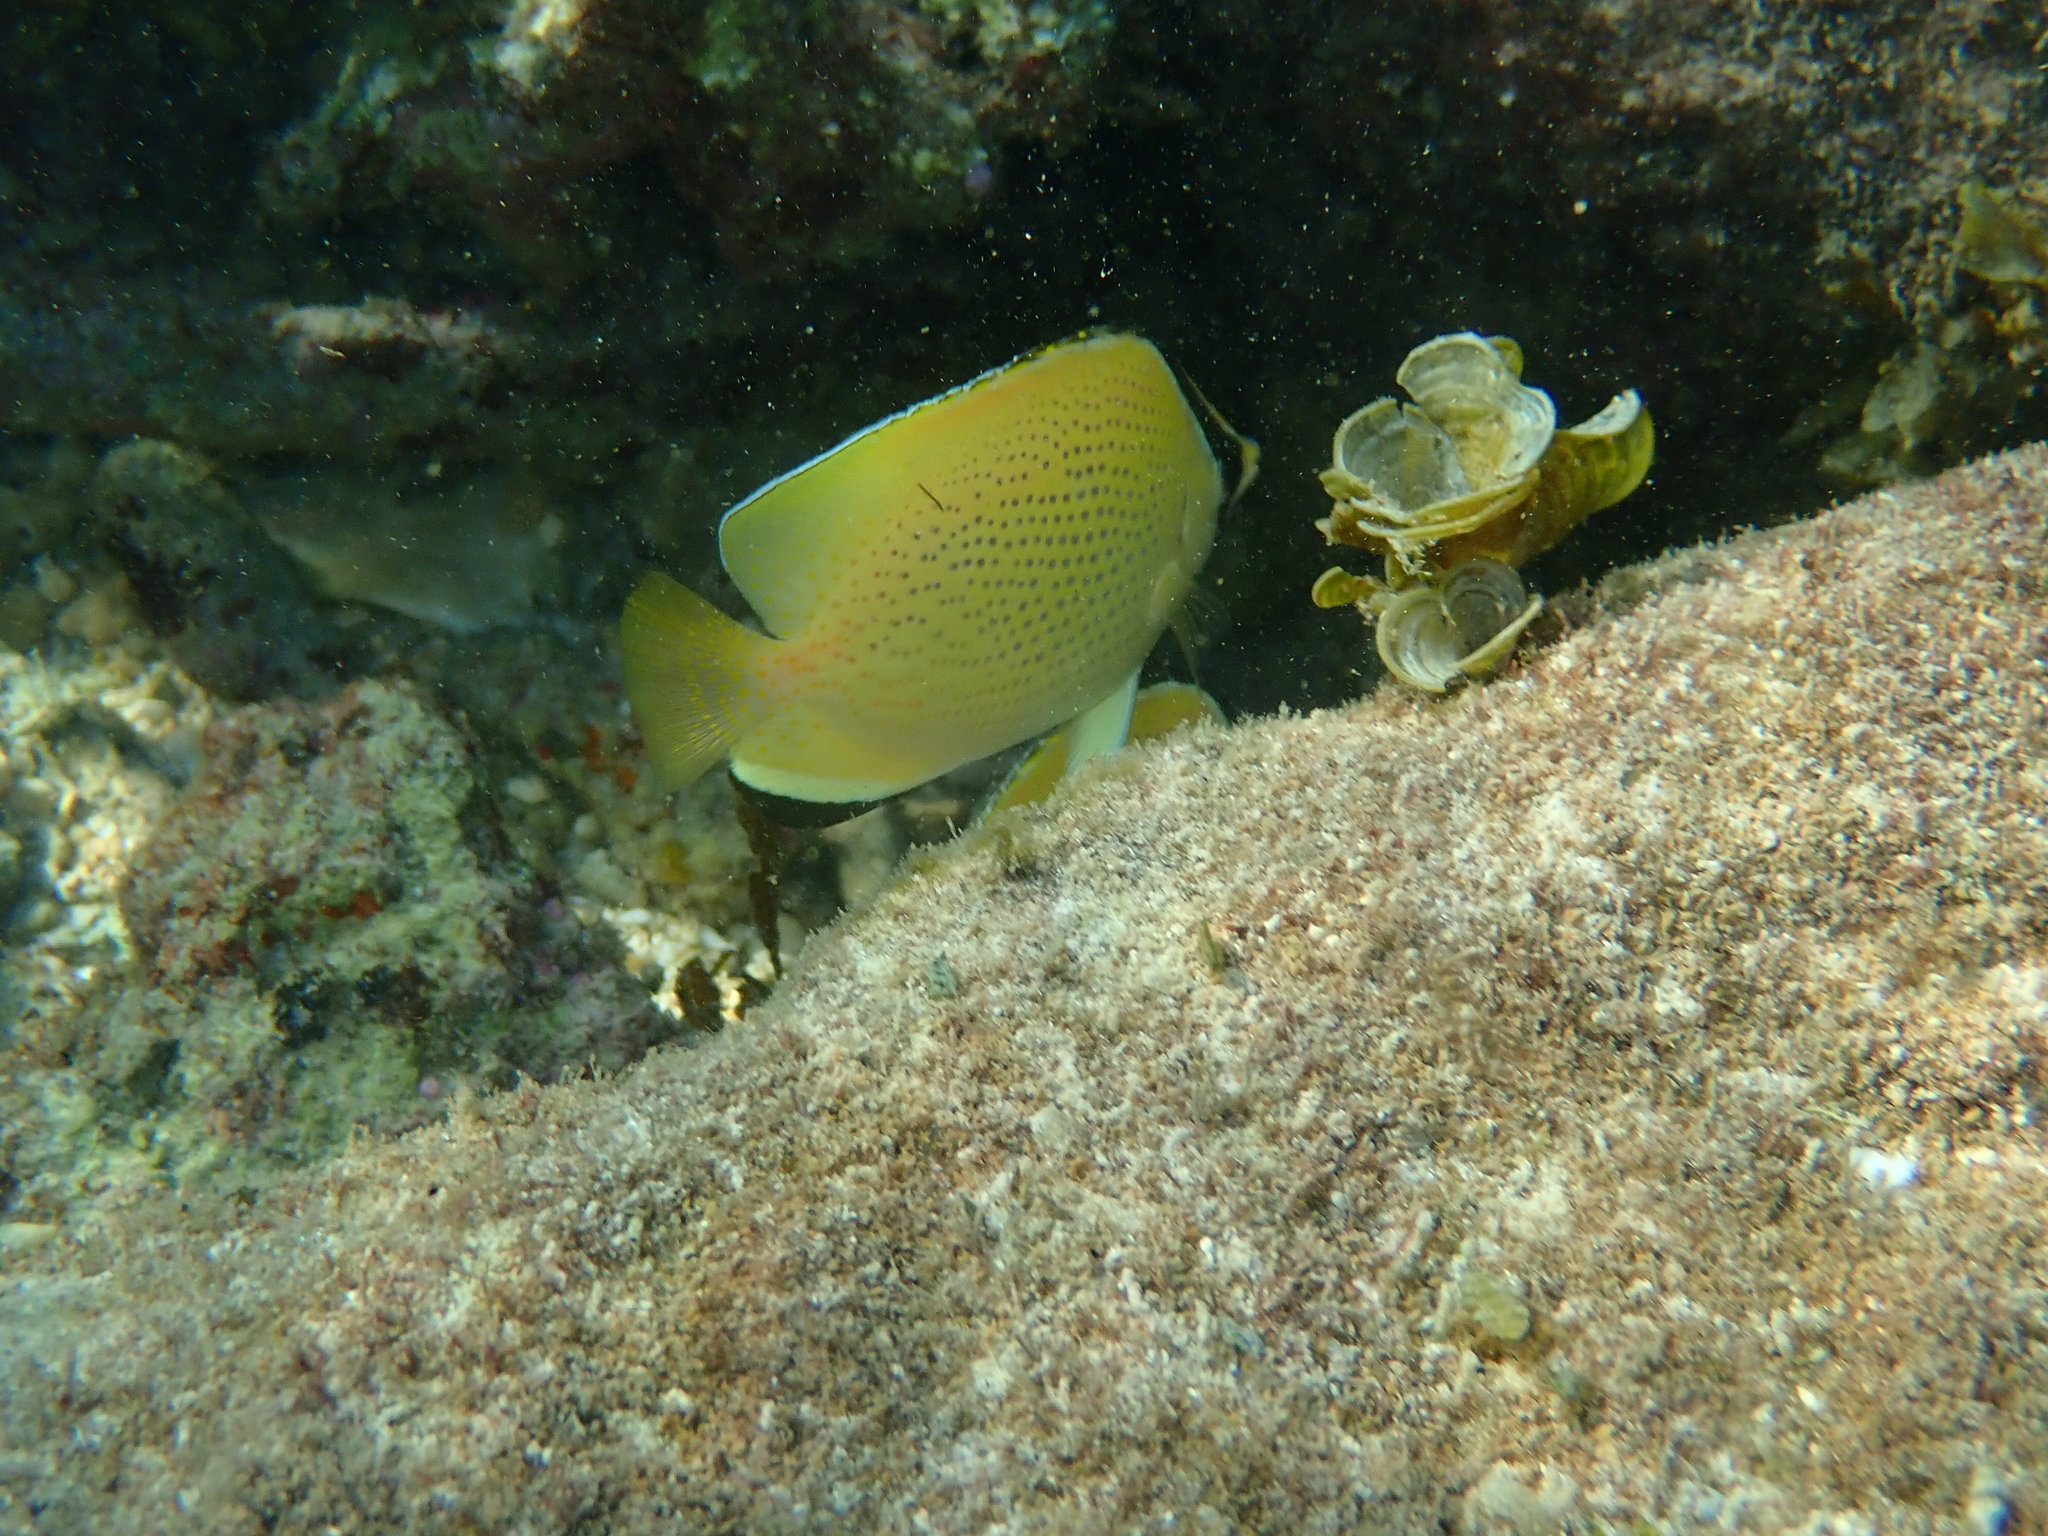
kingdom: Animalia
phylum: Chordata
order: Perciformes
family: Chaetodontidae
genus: Chaetodon
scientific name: Chaetodon citrinellus
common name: Speckled butterflyfish
